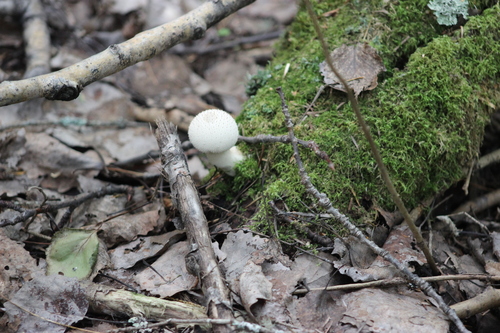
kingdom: Fungi
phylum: Basidiomycota
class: Agaricomycetes
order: Agaricales
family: Lycoperdaceae
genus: Lycoperdon
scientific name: Lycoperdon perlatum
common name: Common puffball
